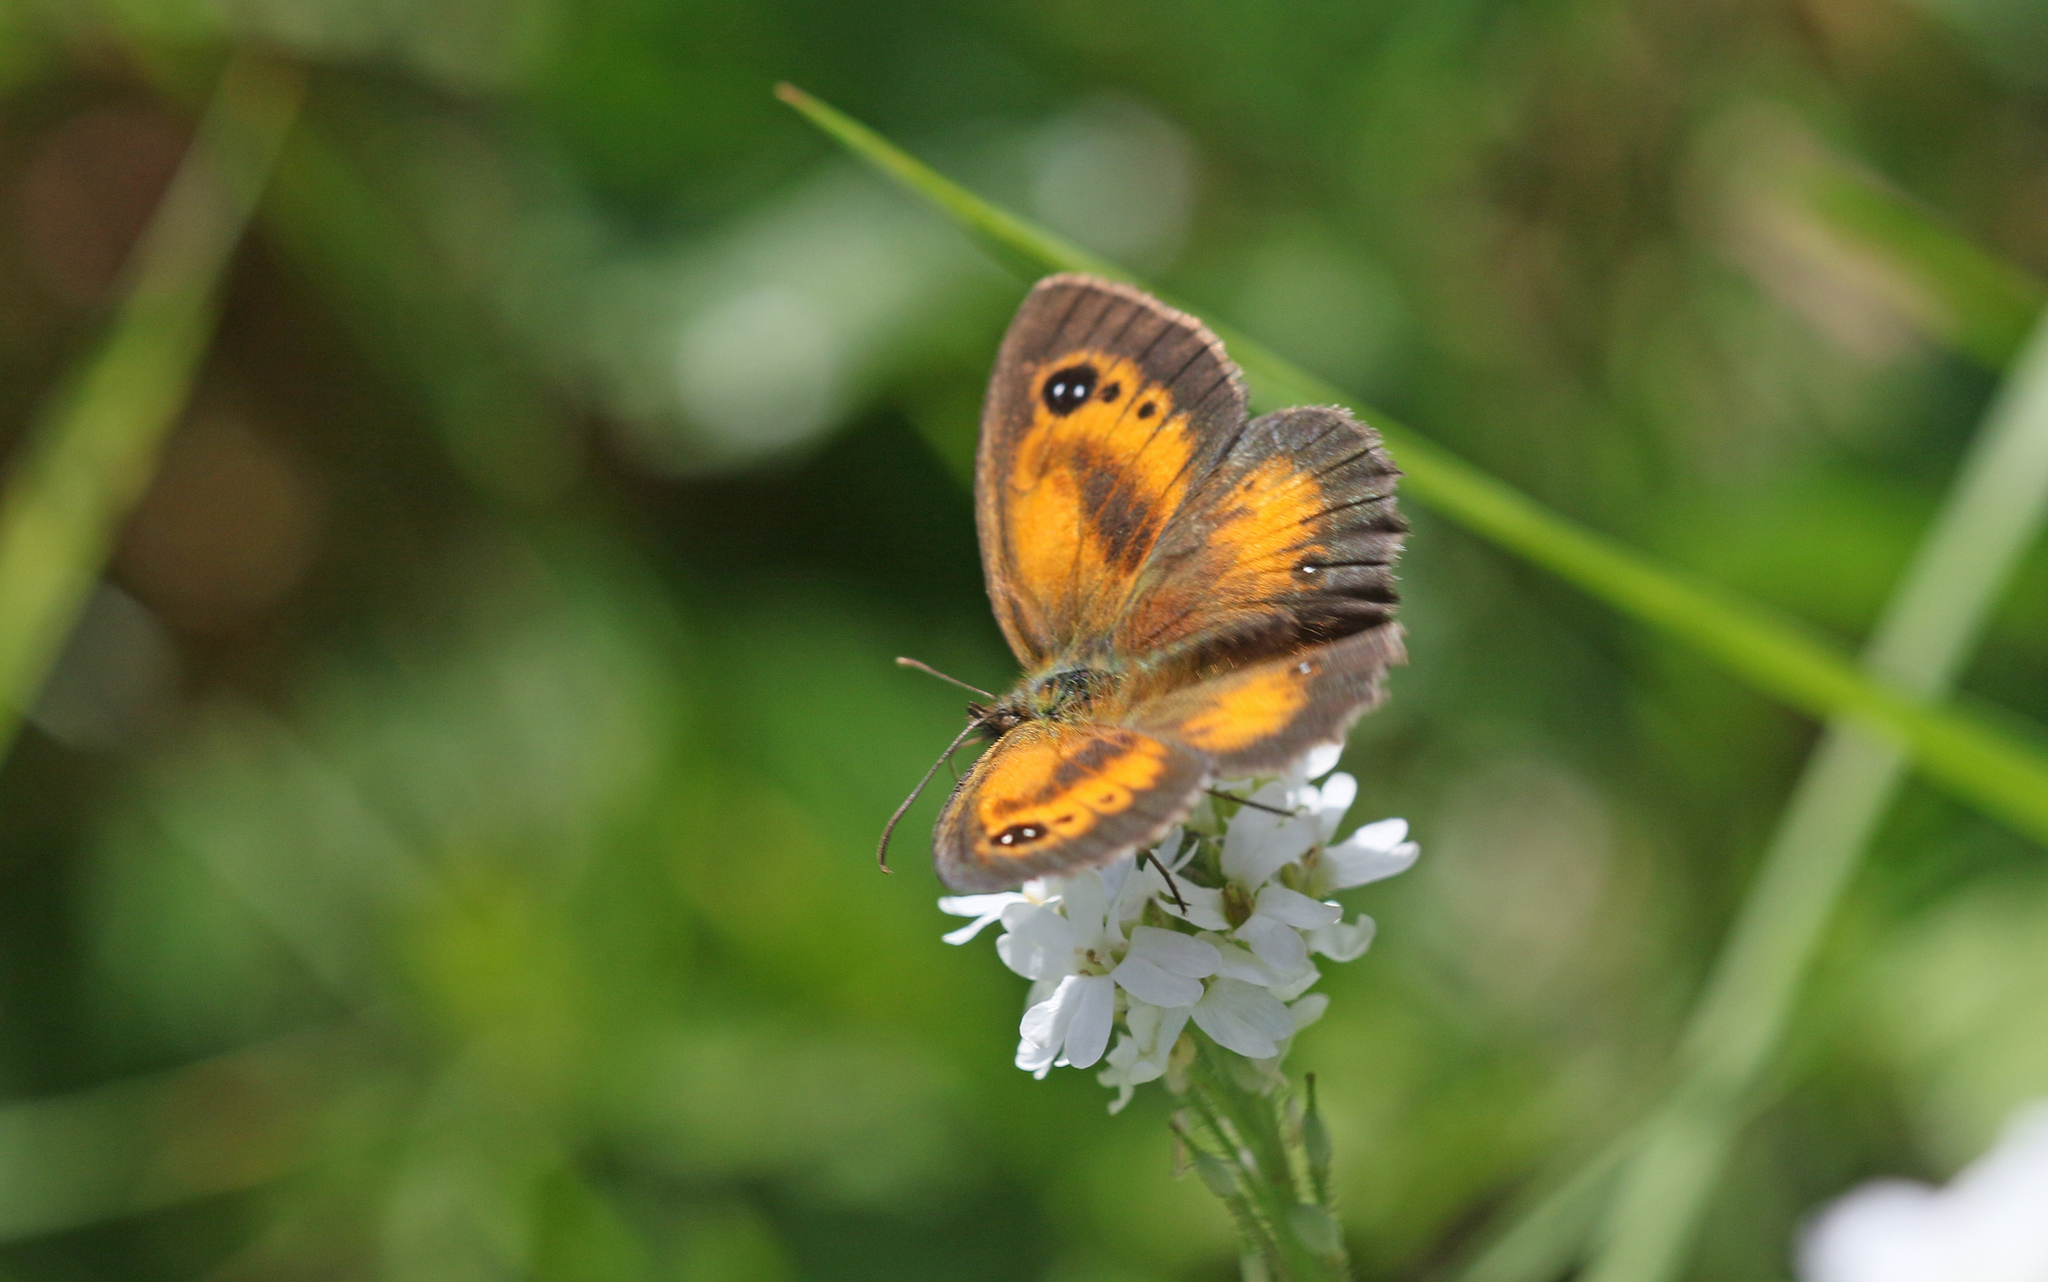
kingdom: Animalia
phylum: Arthropoda
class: Insecta
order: Lepidoptera
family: Nymphalidae
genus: Pyronia
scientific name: Pyronia tithonus
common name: Gatekeeper
